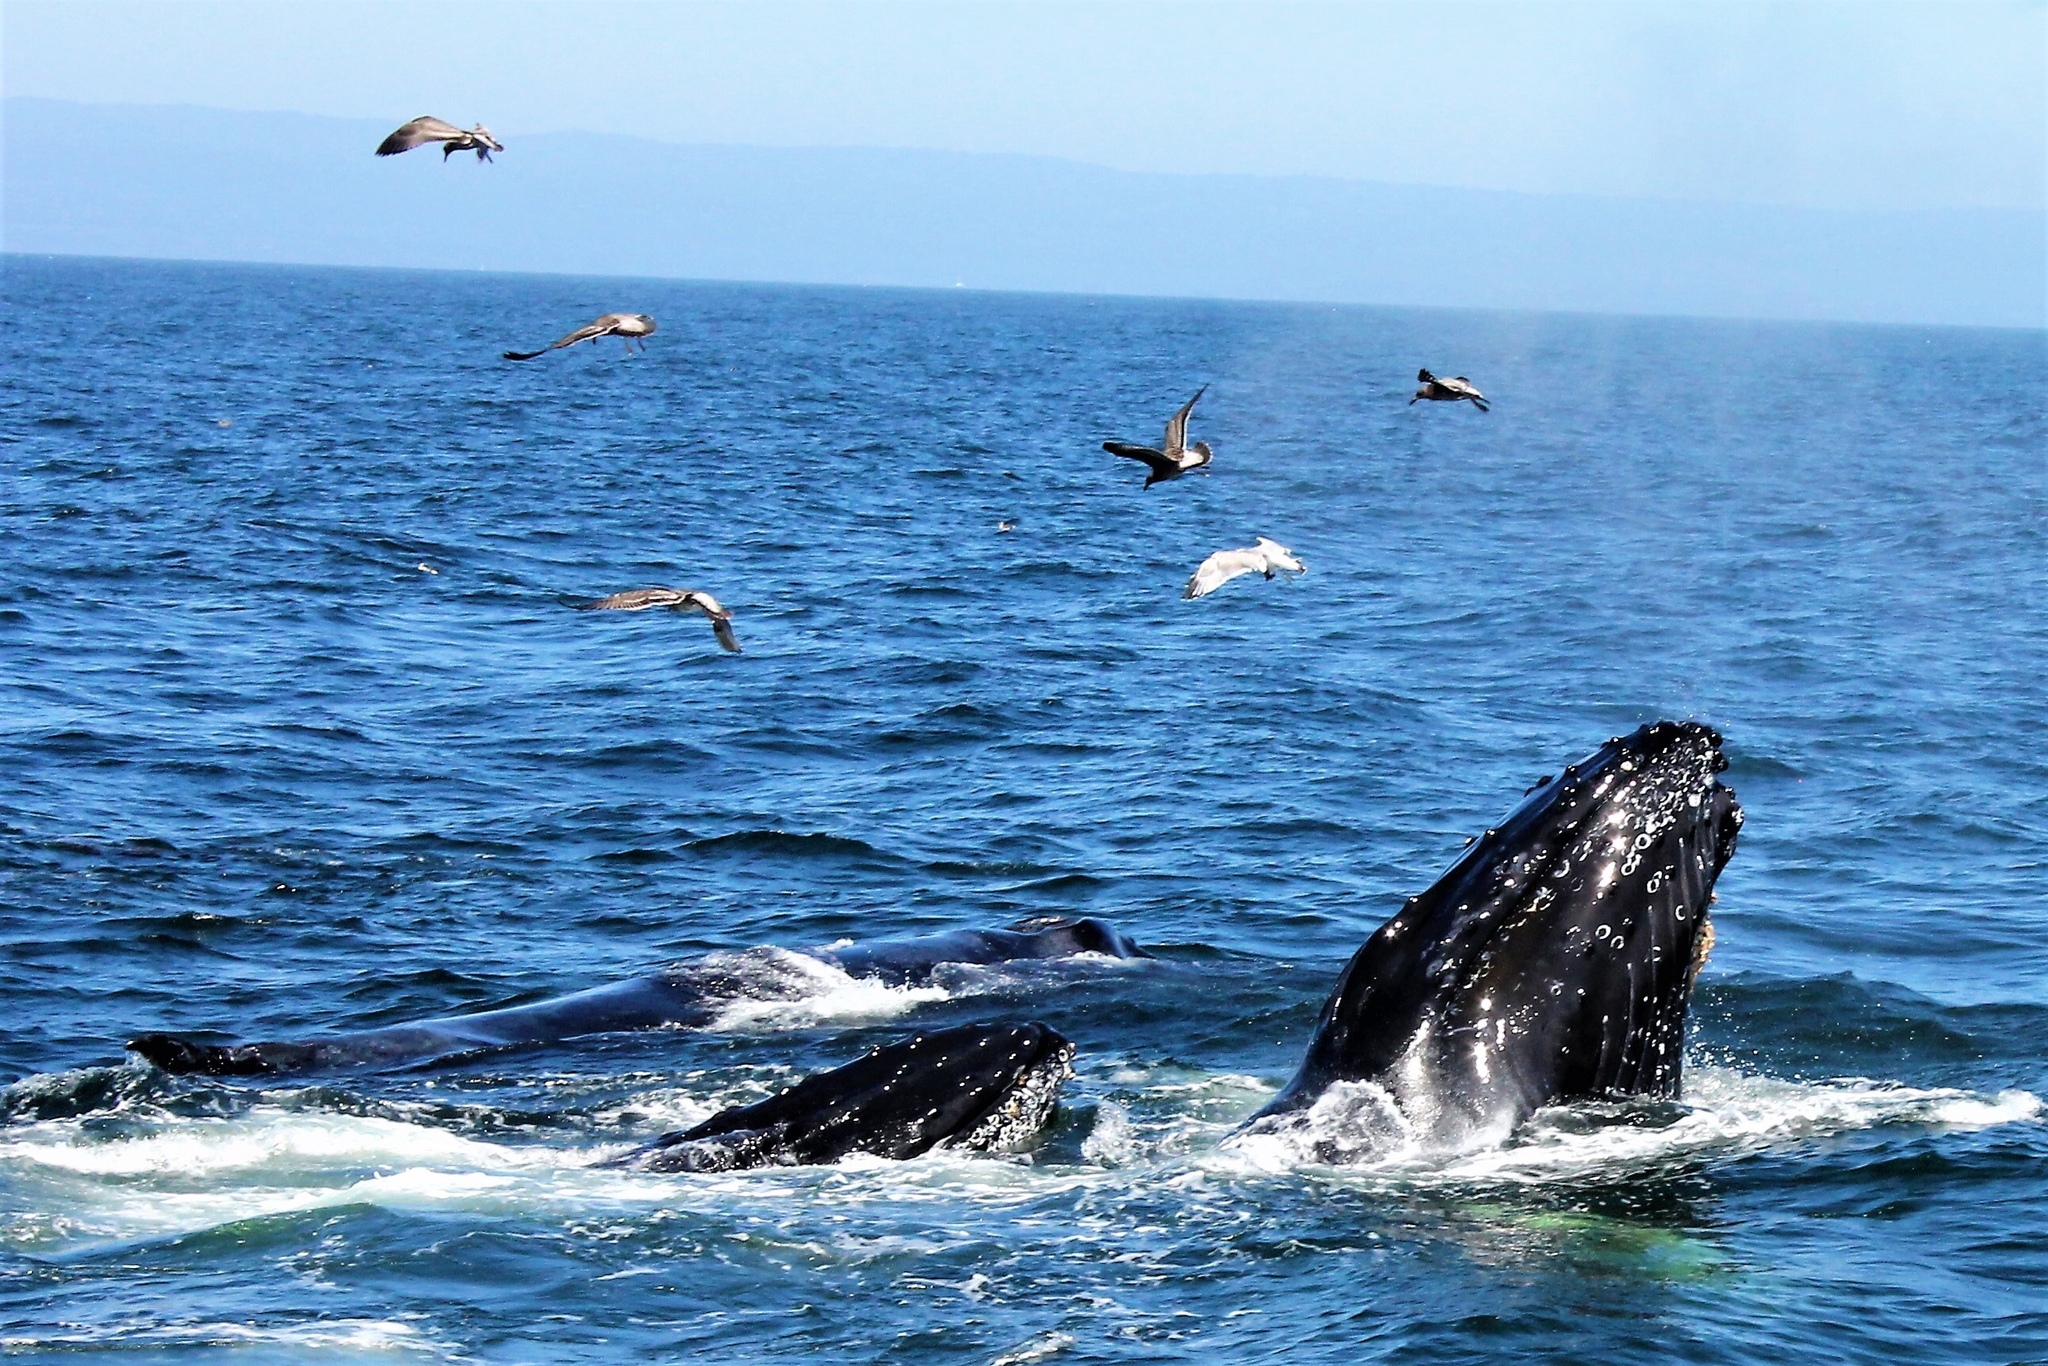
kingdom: Animalia
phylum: Chordata
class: Mammalia
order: Cetacea
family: Balaenopteridae
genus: Megaptera
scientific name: Megaptera novaeangliae
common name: Humpback whale
